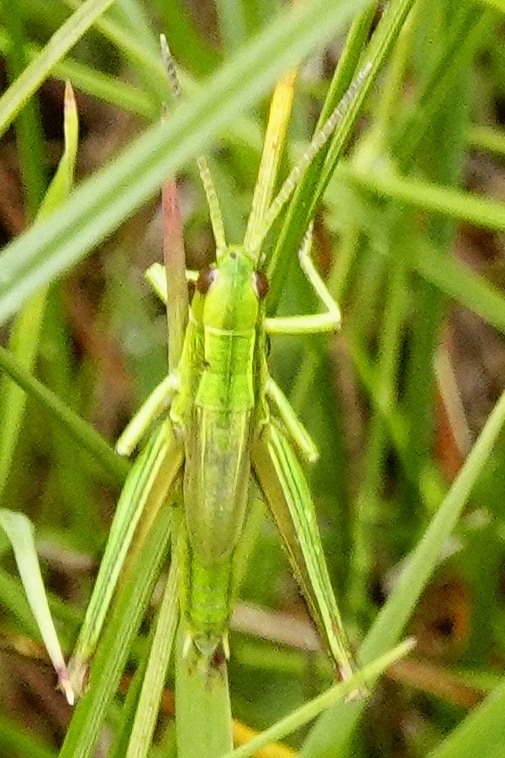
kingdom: Animalia
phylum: Arthropoda
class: Insecta
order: Orthoptera
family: Acrididae
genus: Euthystira
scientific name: Euthystira brachyptera
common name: Small gold grasshopper
